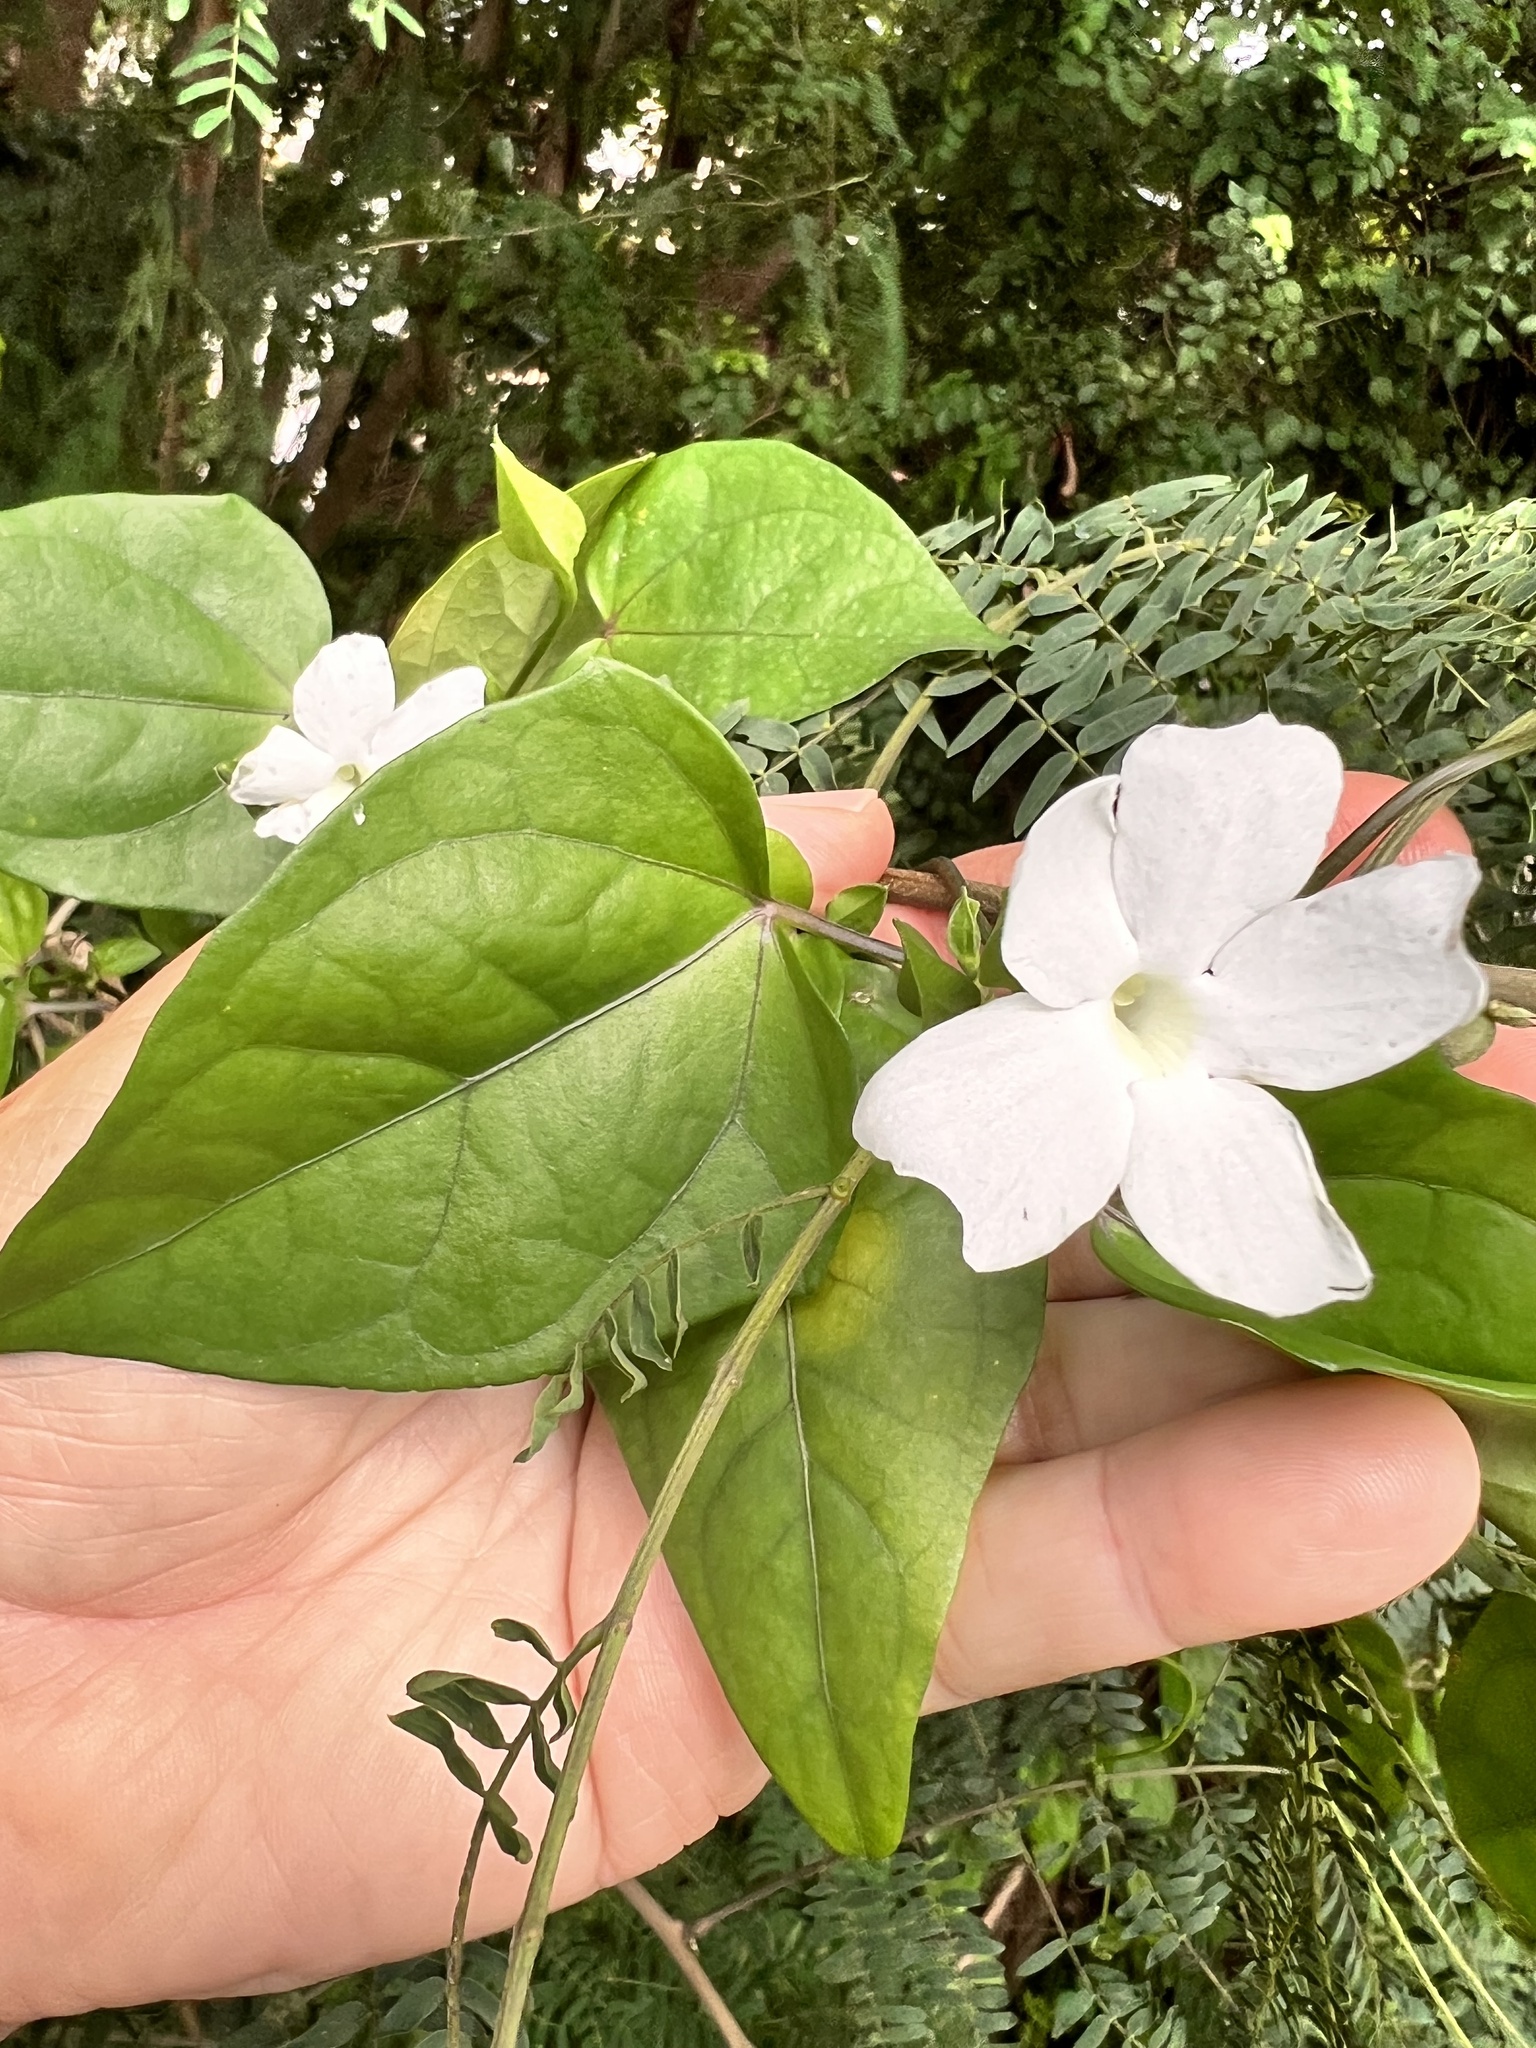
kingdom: Plantae
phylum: Tracheophyta
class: Magnoliopsida
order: Lamiales
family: Acanthaceae
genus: Thunbergia
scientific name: Thunbergia fragrans
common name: Whitelady
